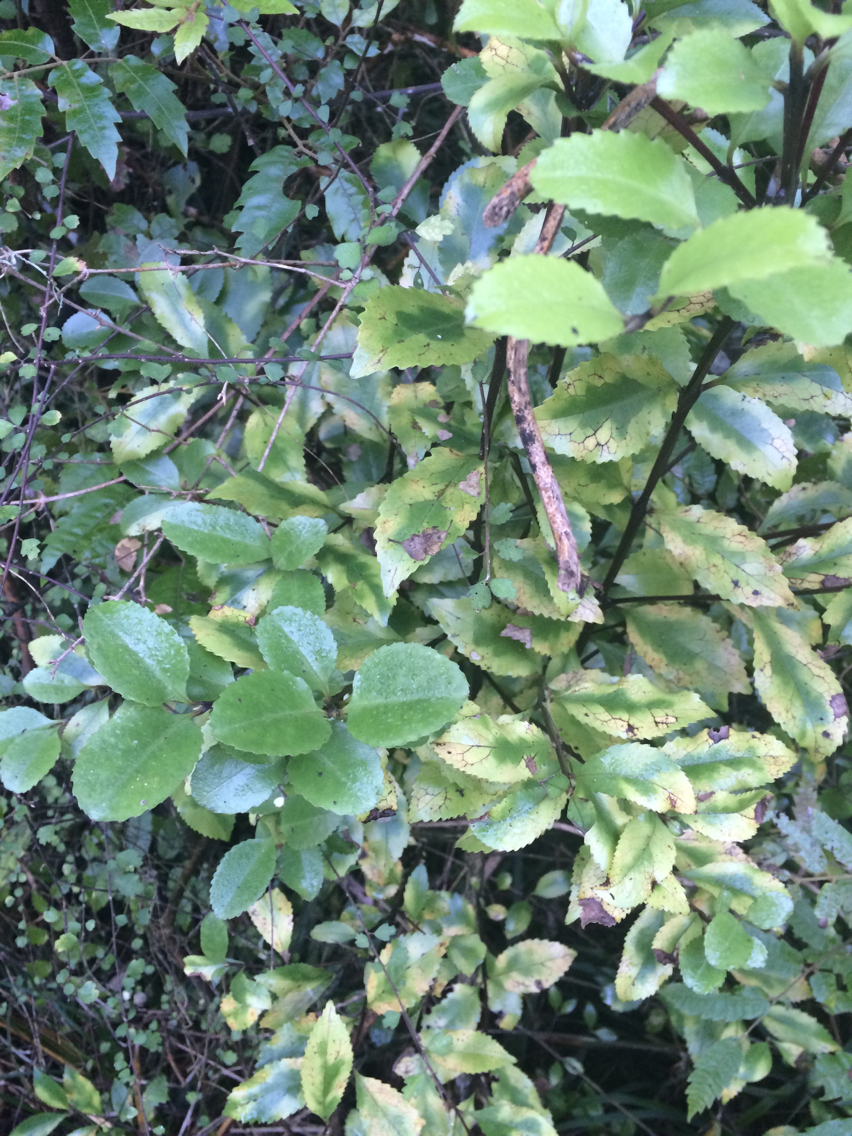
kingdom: Plantae
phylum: Tracheophyta
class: Magnoliopsida
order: Laurales
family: Atherospermataceae
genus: Laurelia
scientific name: Laurelia novae-zelandiae
